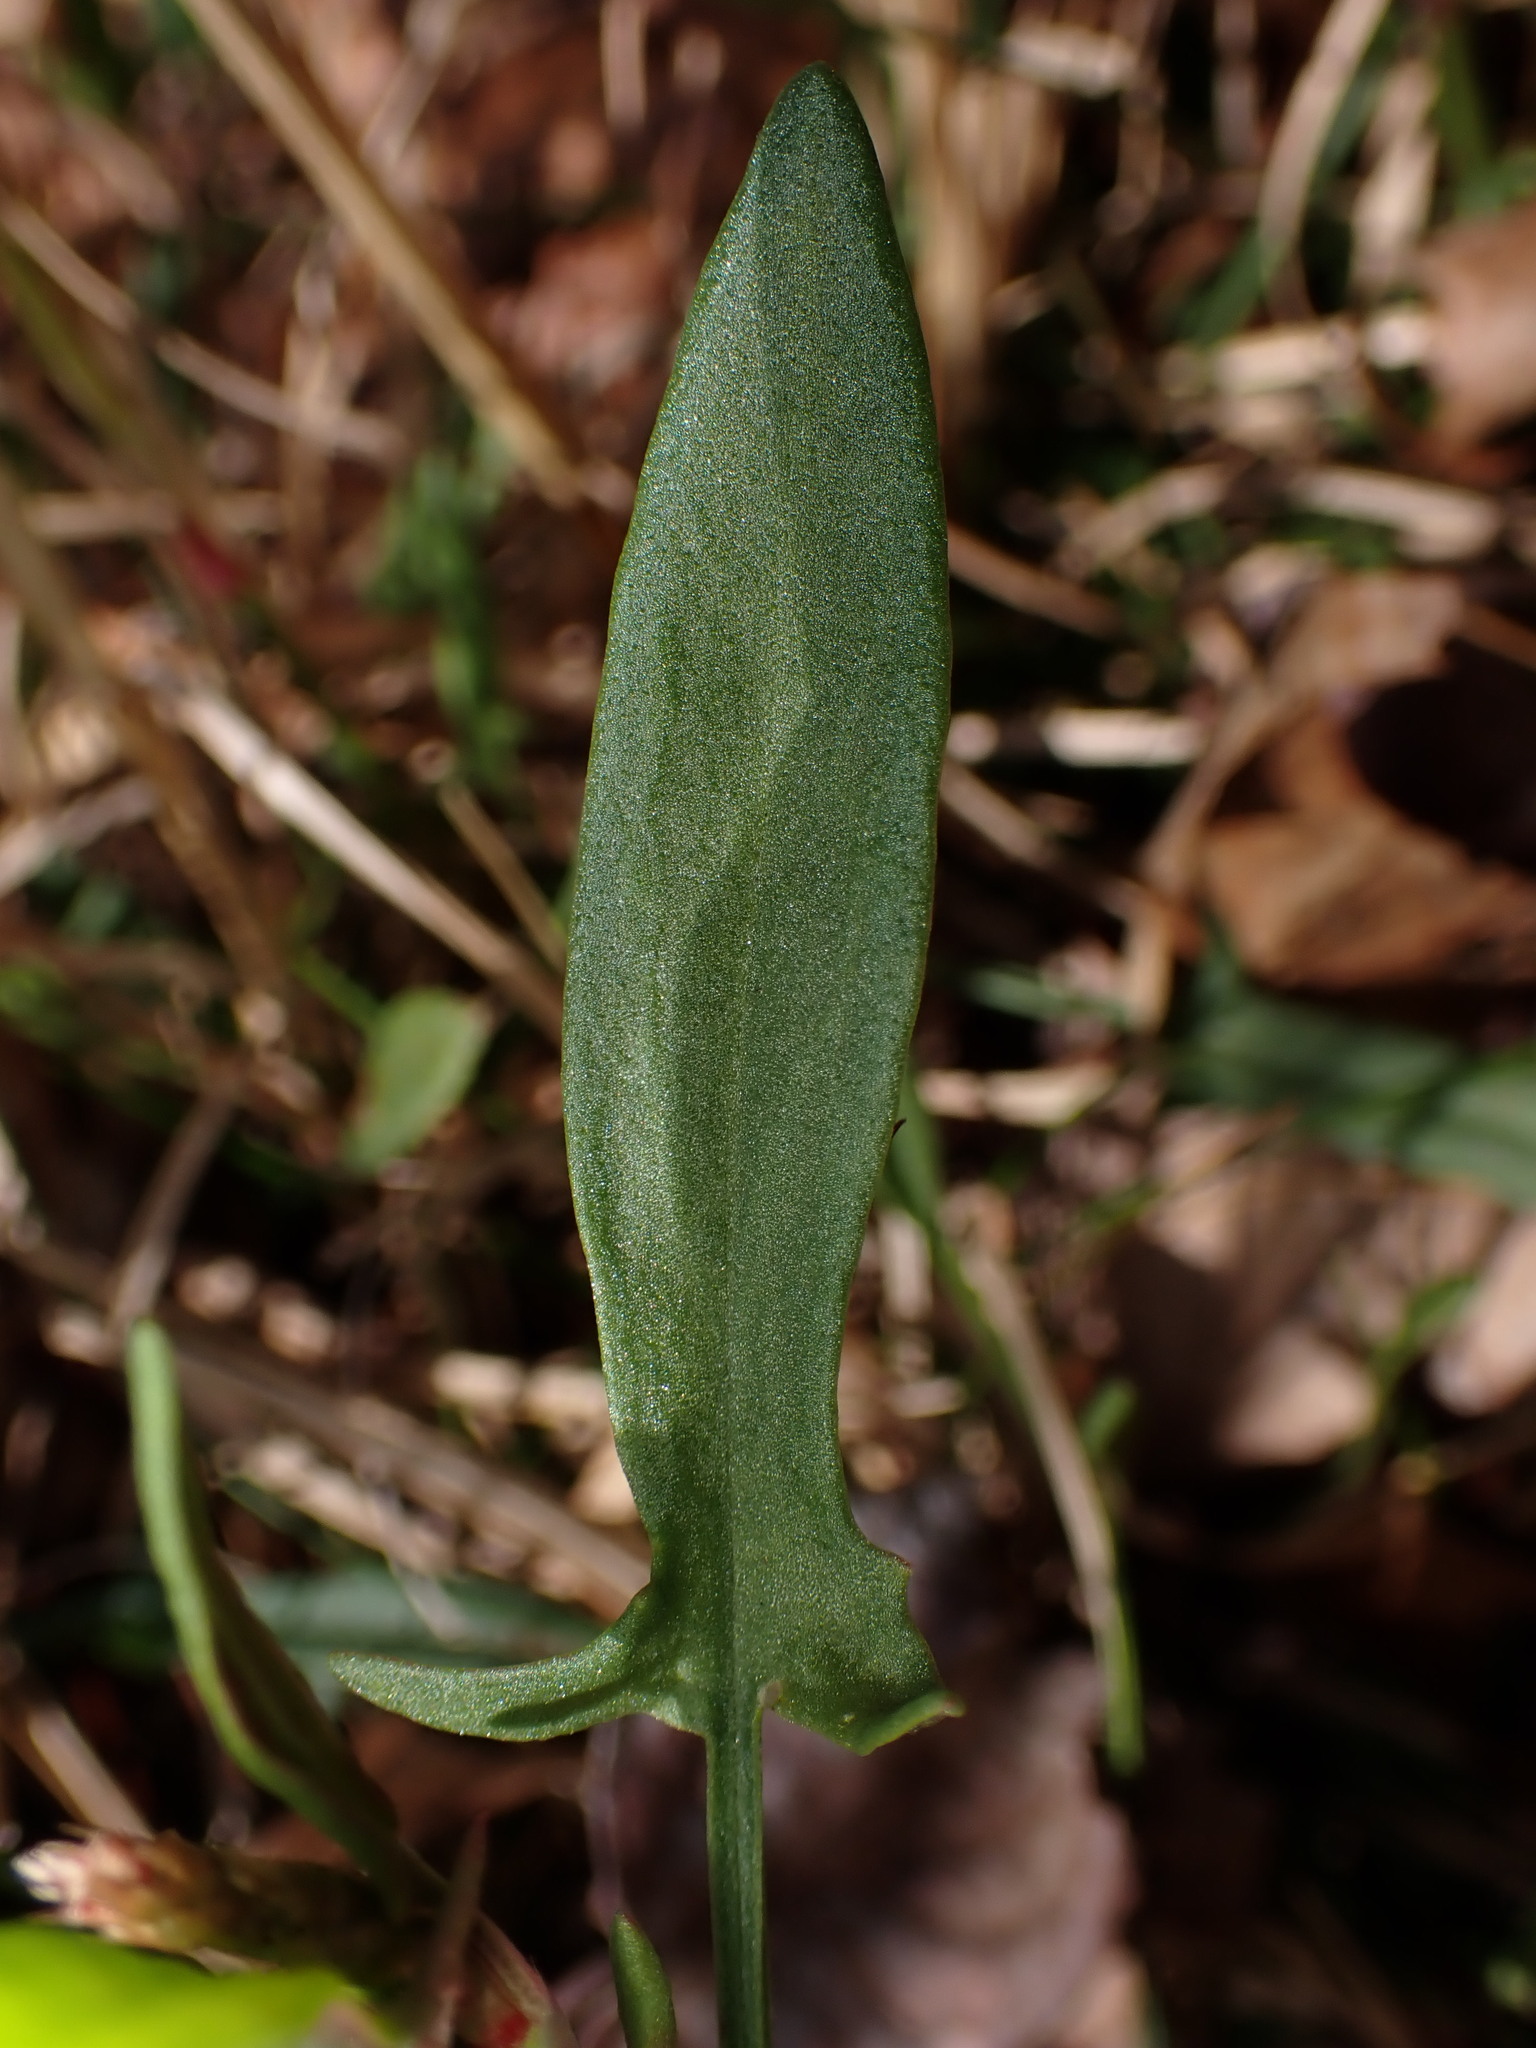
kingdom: Plantae
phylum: Tracheophyta
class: Magnoliopsida
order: Caryophyllales
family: Polygonaceae
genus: Rumex
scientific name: Rumex acetosella
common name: Common sheep sorrel
